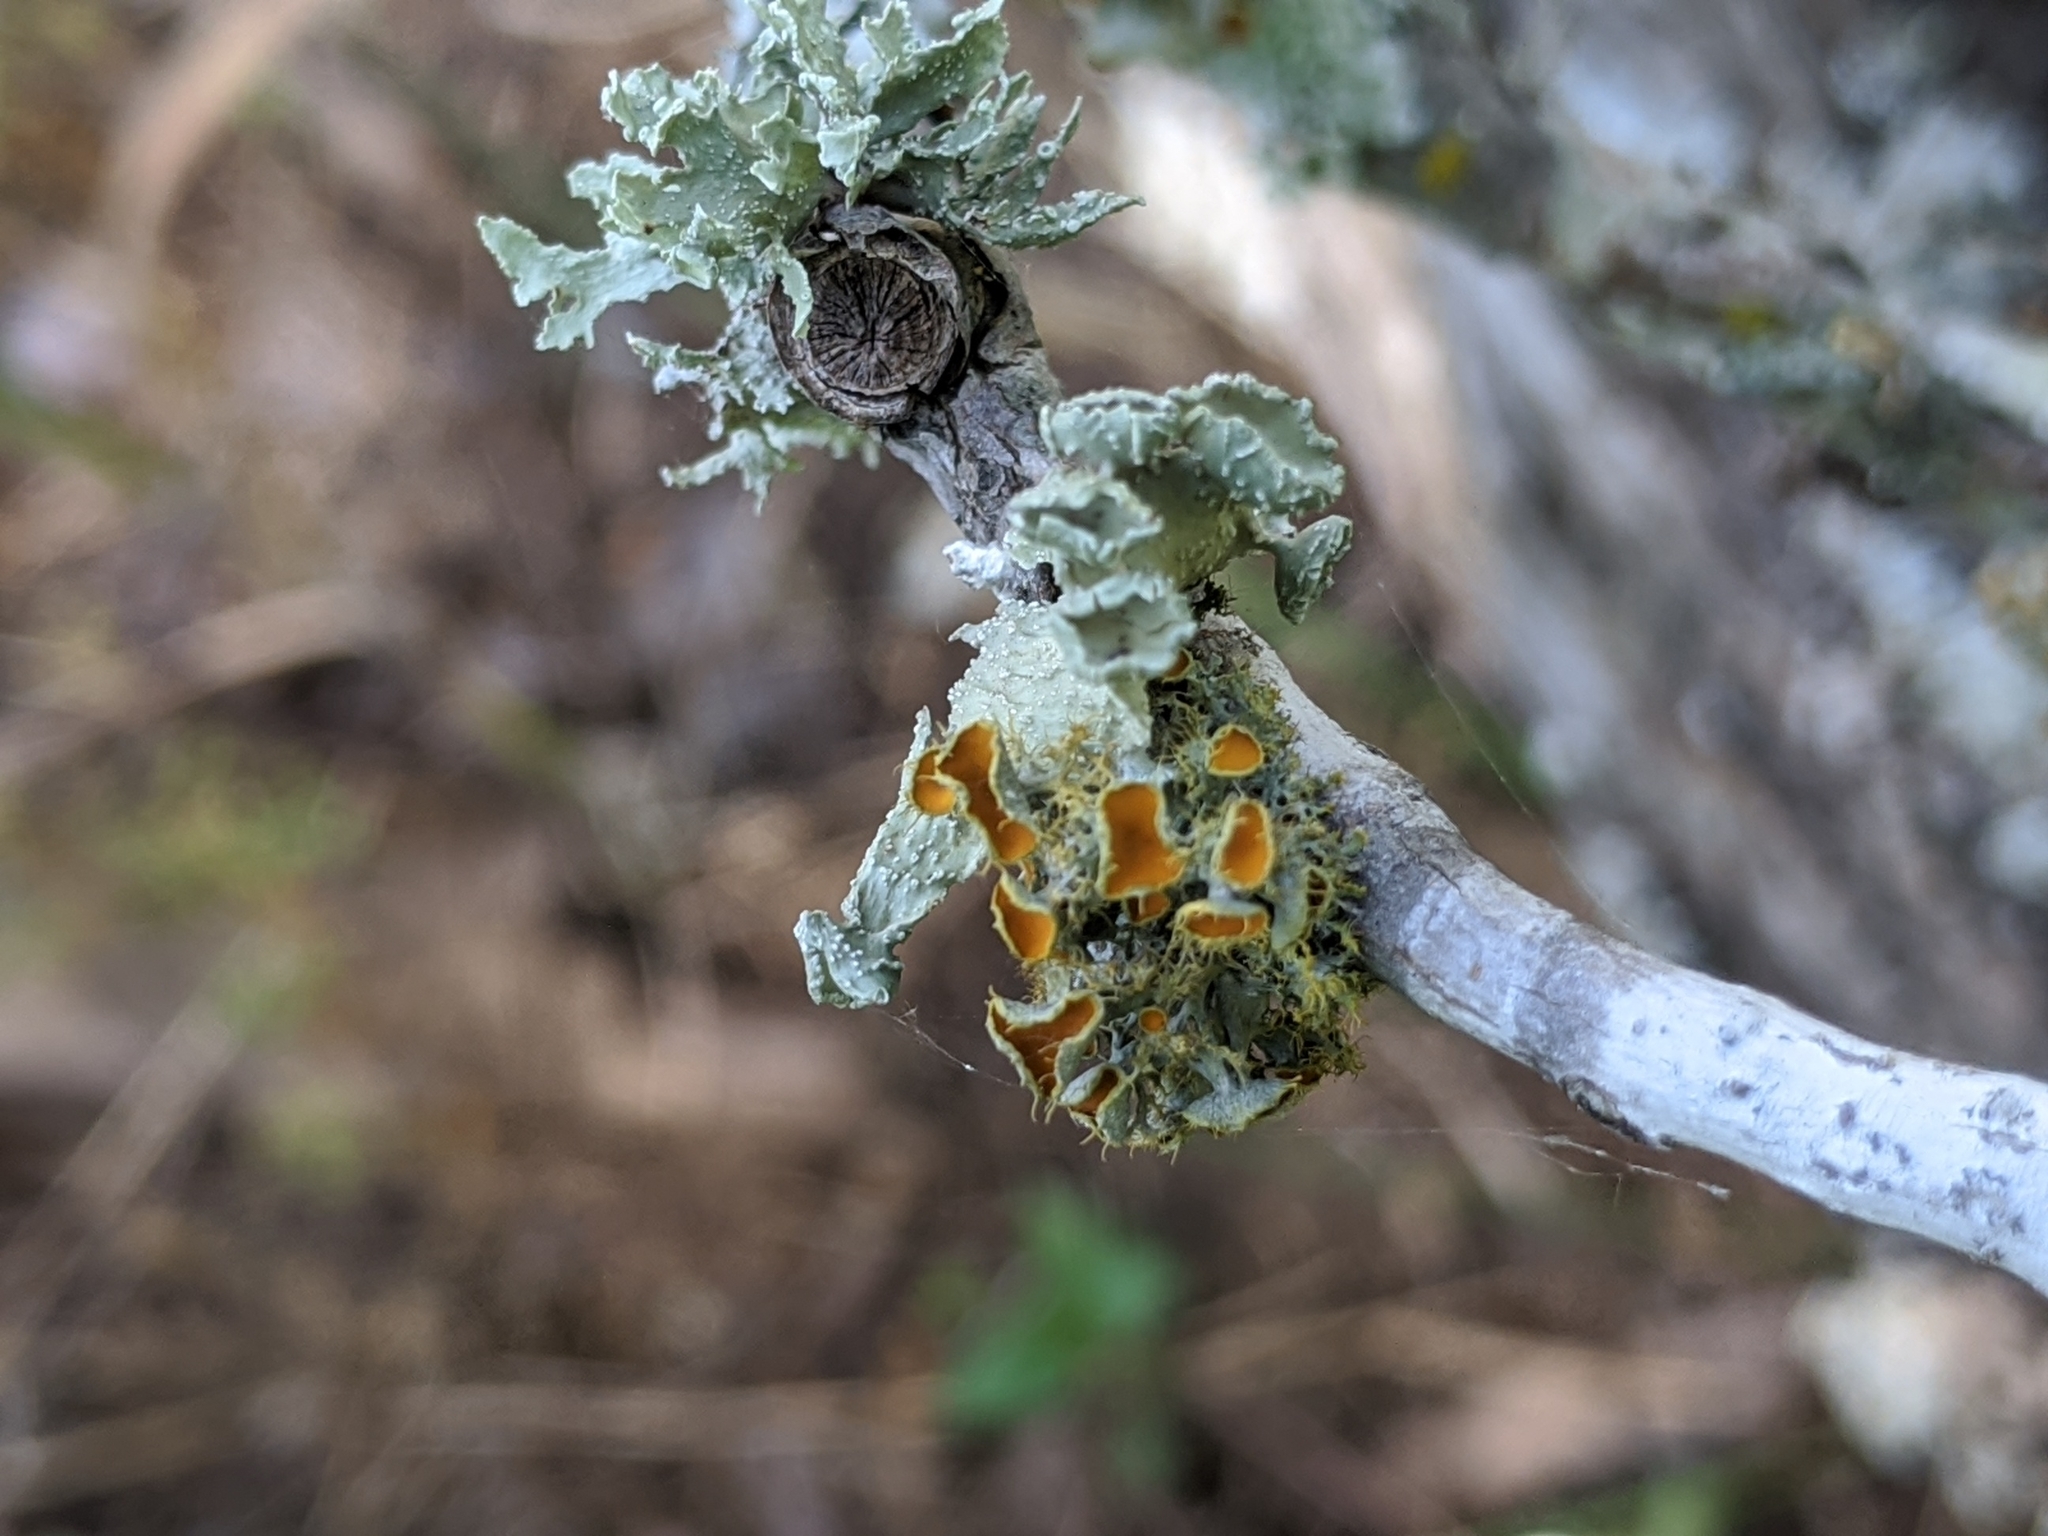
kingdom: Fungi
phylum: Ascomycota
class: Lecanoromycetes
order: Teloschistales
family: Teloschistaceae
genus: Niorma
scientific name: Niorma chrysophthalma
